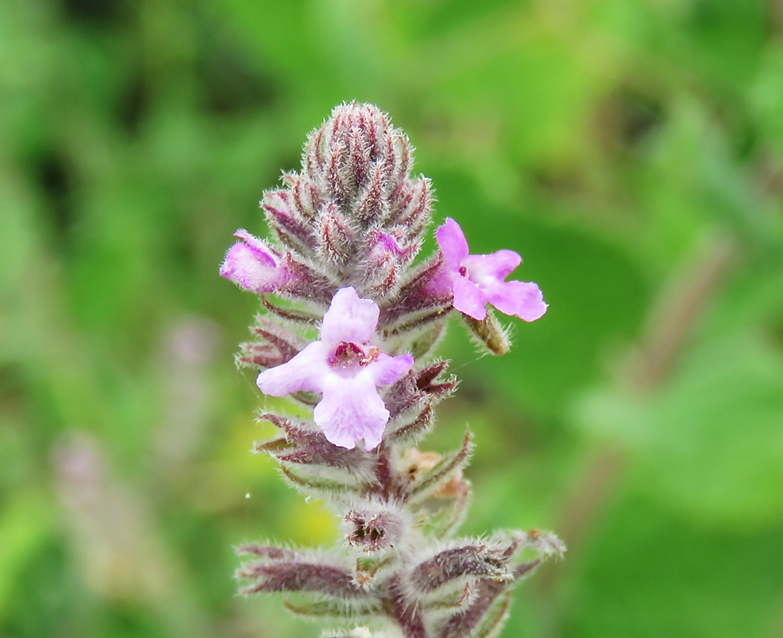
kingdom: Plantae
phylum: Tracheophyta
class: Magnoliopsida
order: Lamiales
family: Verbenaceae
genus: Aloysia
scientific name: Aloysia macrostachya
